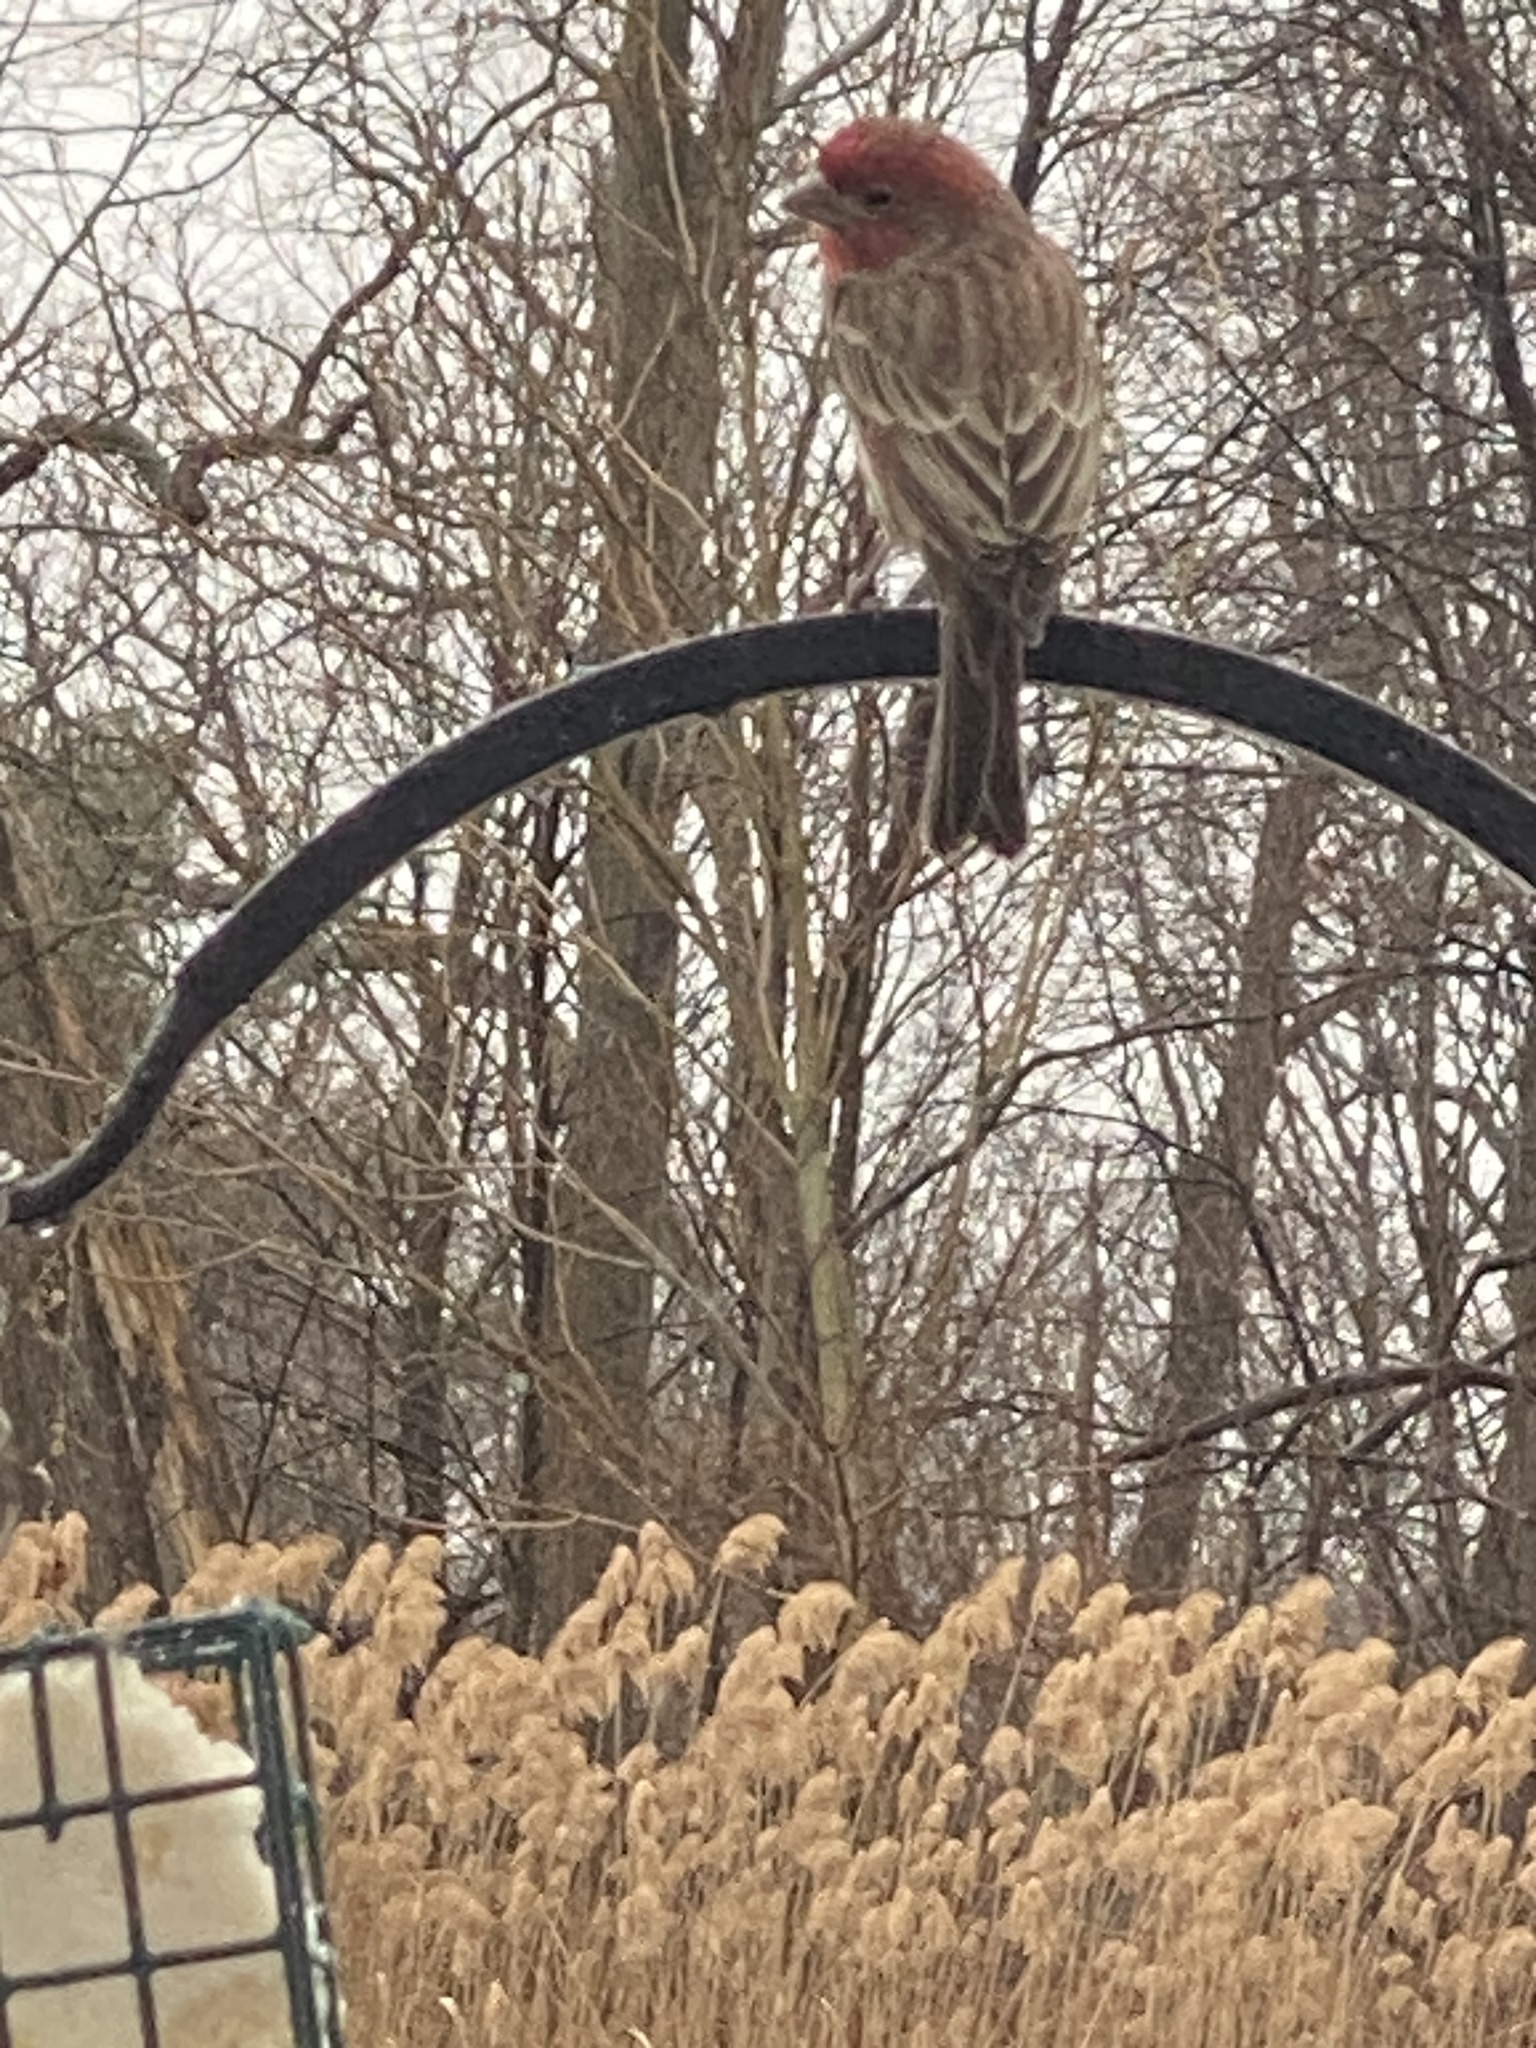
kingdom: Animalia
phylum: Chordata
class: Aves
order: Passeriformes
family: Fringillidae
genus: Haemorhous
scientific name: Haemorhous mexicanus
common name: House finch
